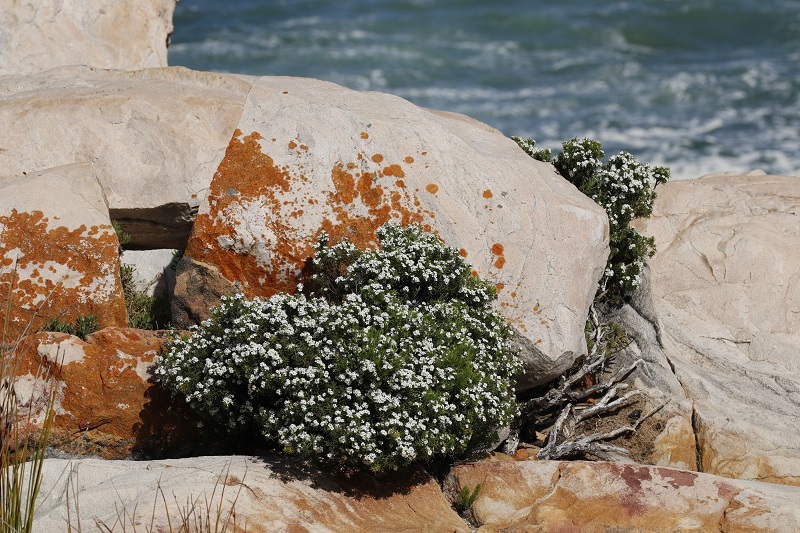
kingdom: Plantae
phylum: Tracheophyta
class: Magnoliopsida
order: Sapindales
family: Rutaceae
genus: Coleonema
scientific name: Coleonema album
